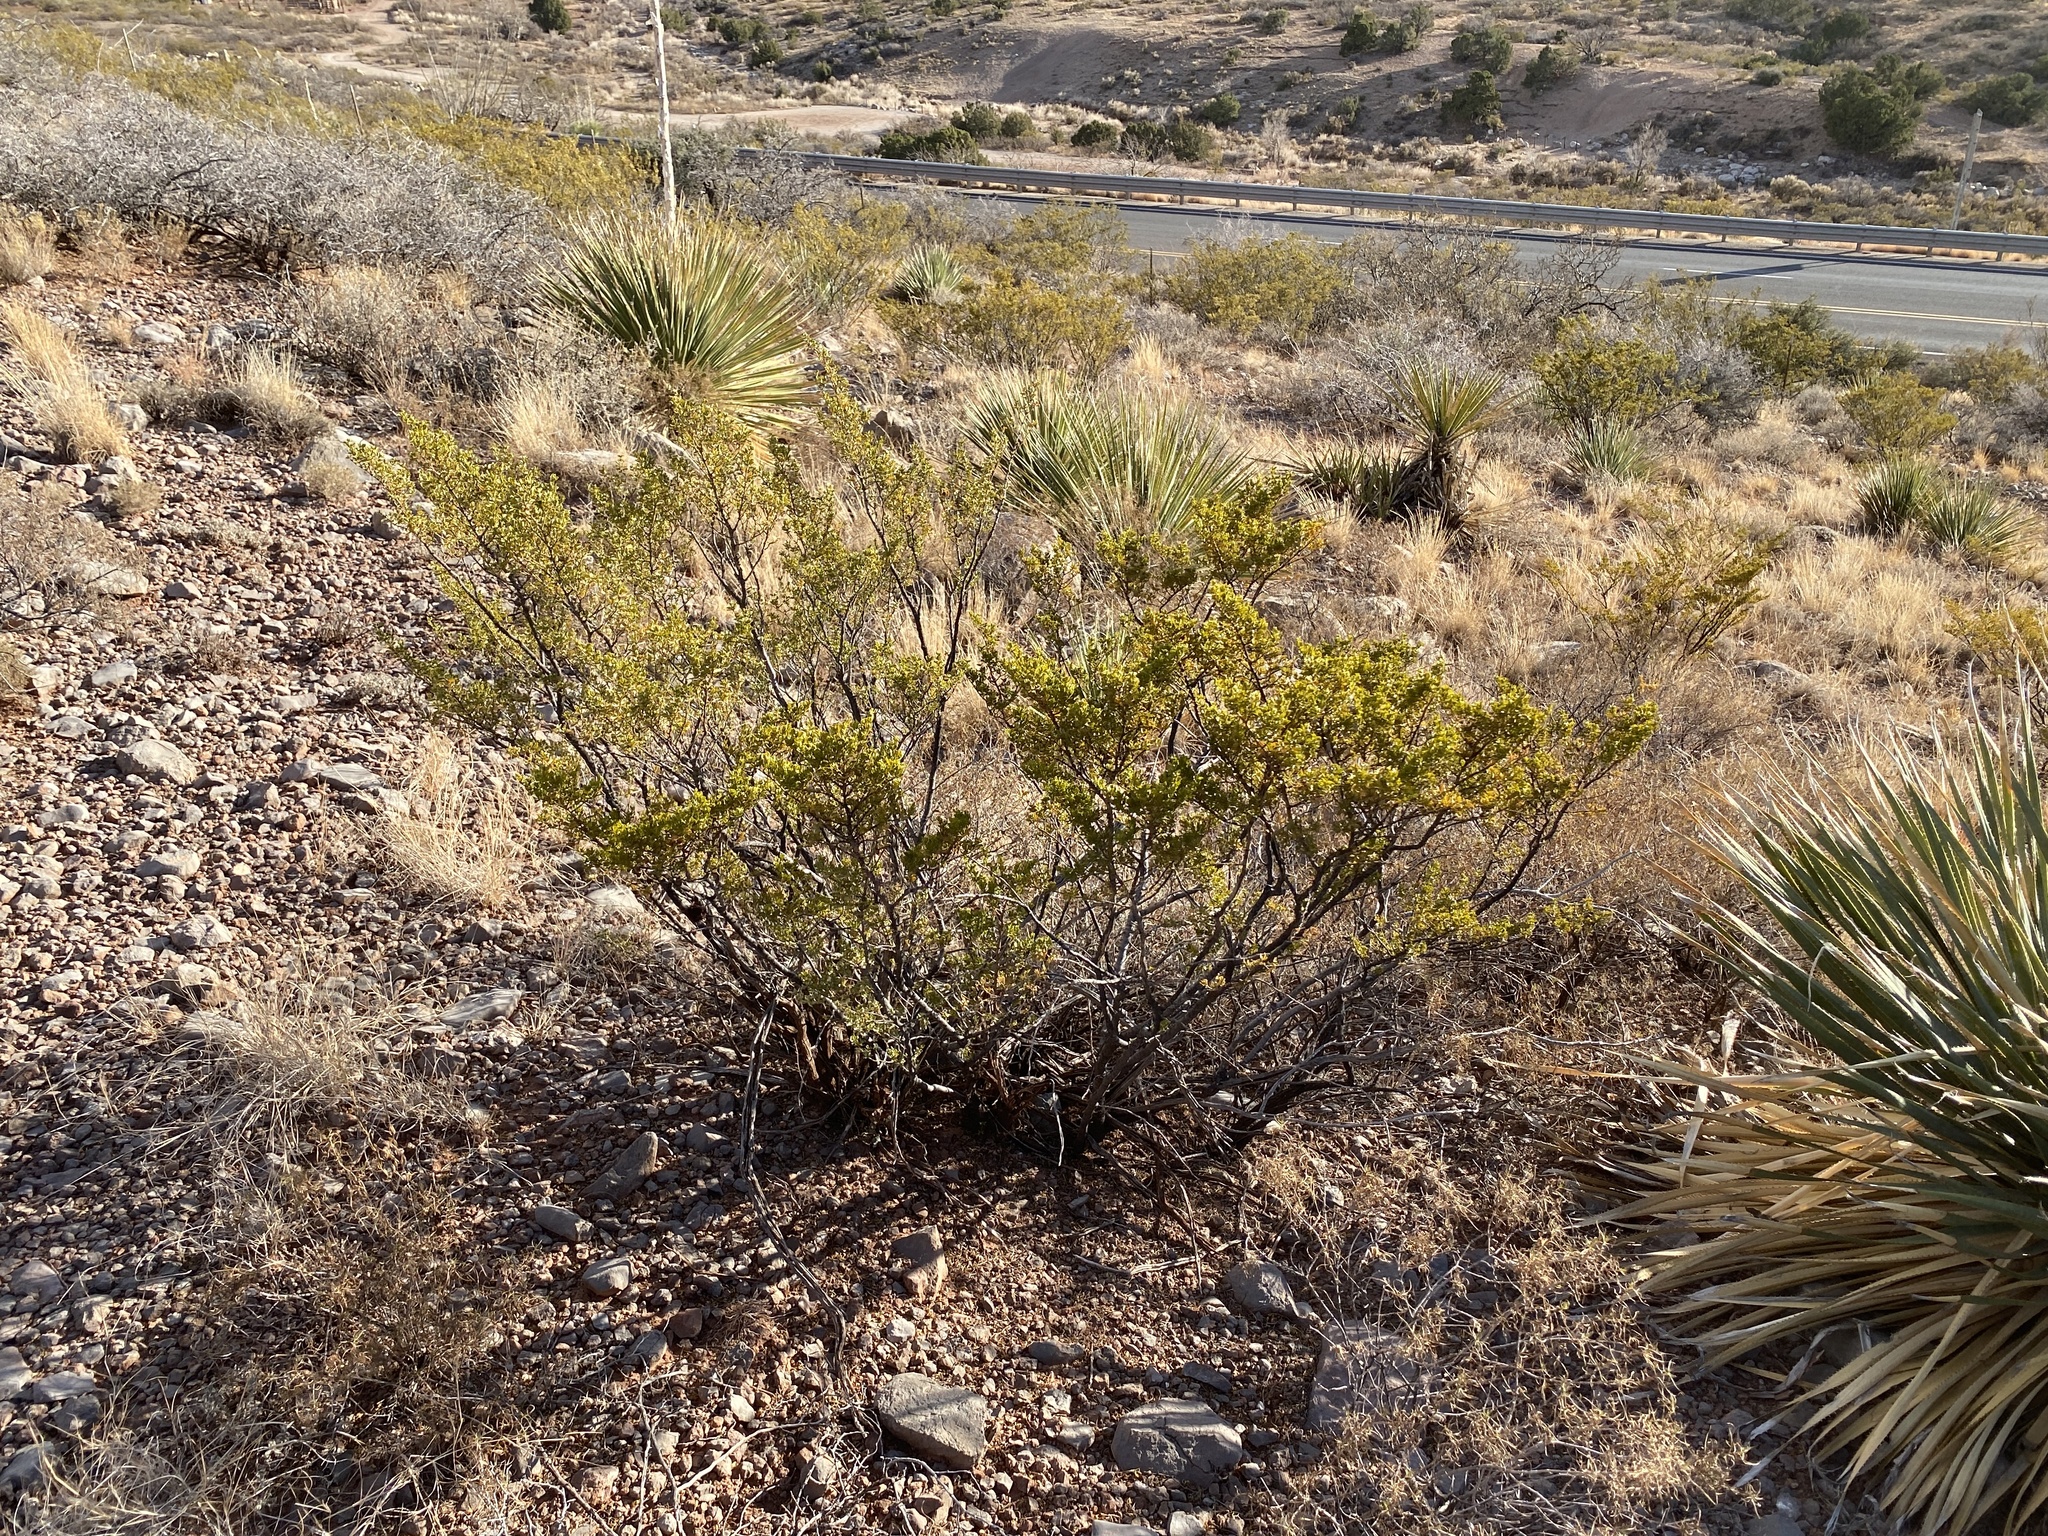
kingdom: Plantae
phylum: Tracheophyta
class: Magnoliopsida
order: Zygophyllales
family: Zygophyllaceae
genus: Larrea
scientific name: Larrea tridentata
